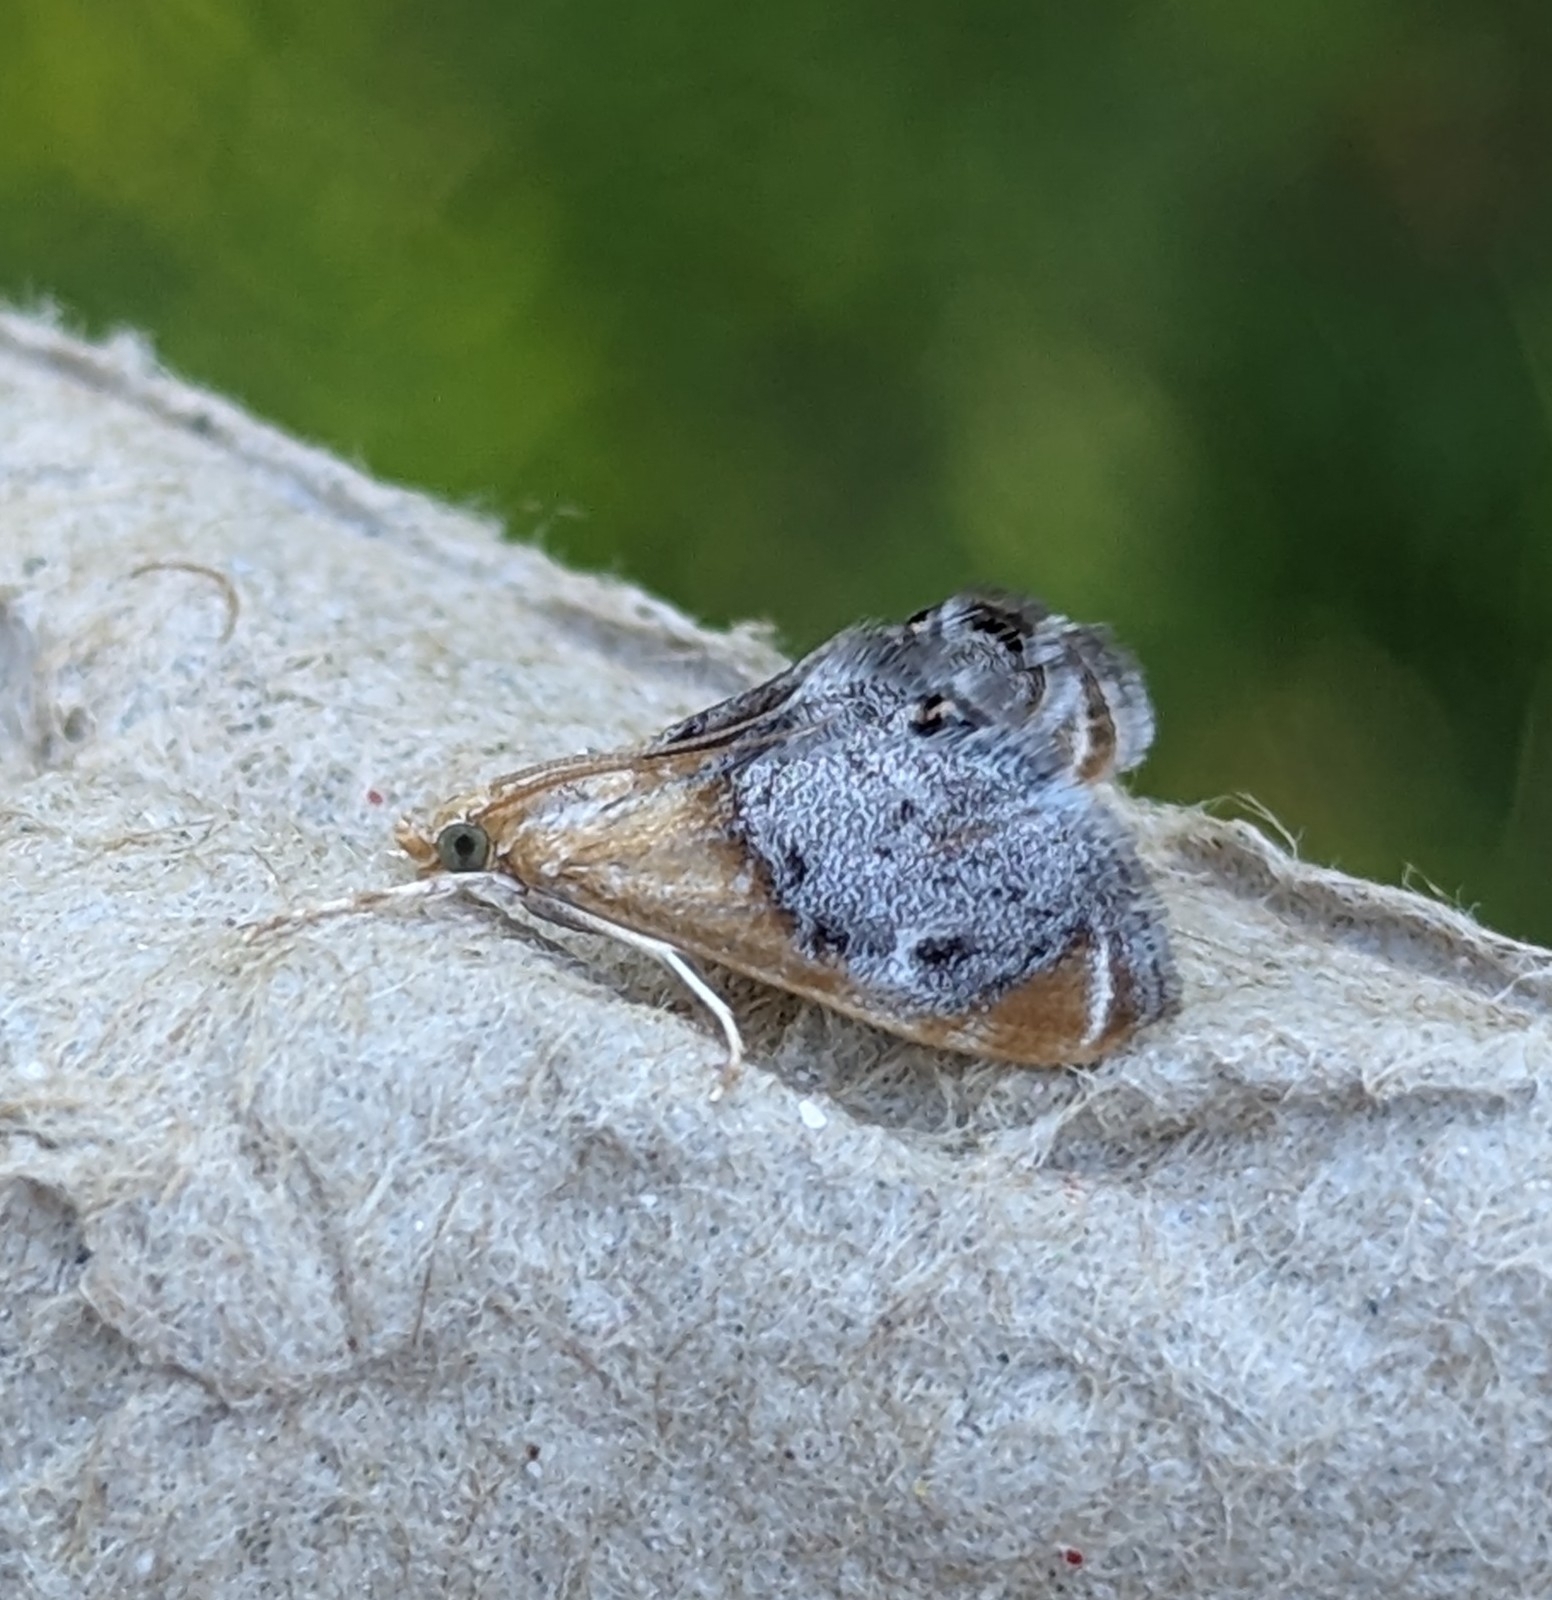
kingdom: Animalia
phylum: Arthropoda
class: Insecta
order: Lepidoptera
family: Crambidae
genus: Chalcoela
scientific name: Chalcoela iphitalis
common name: Sooty-winged chalcoela moth
